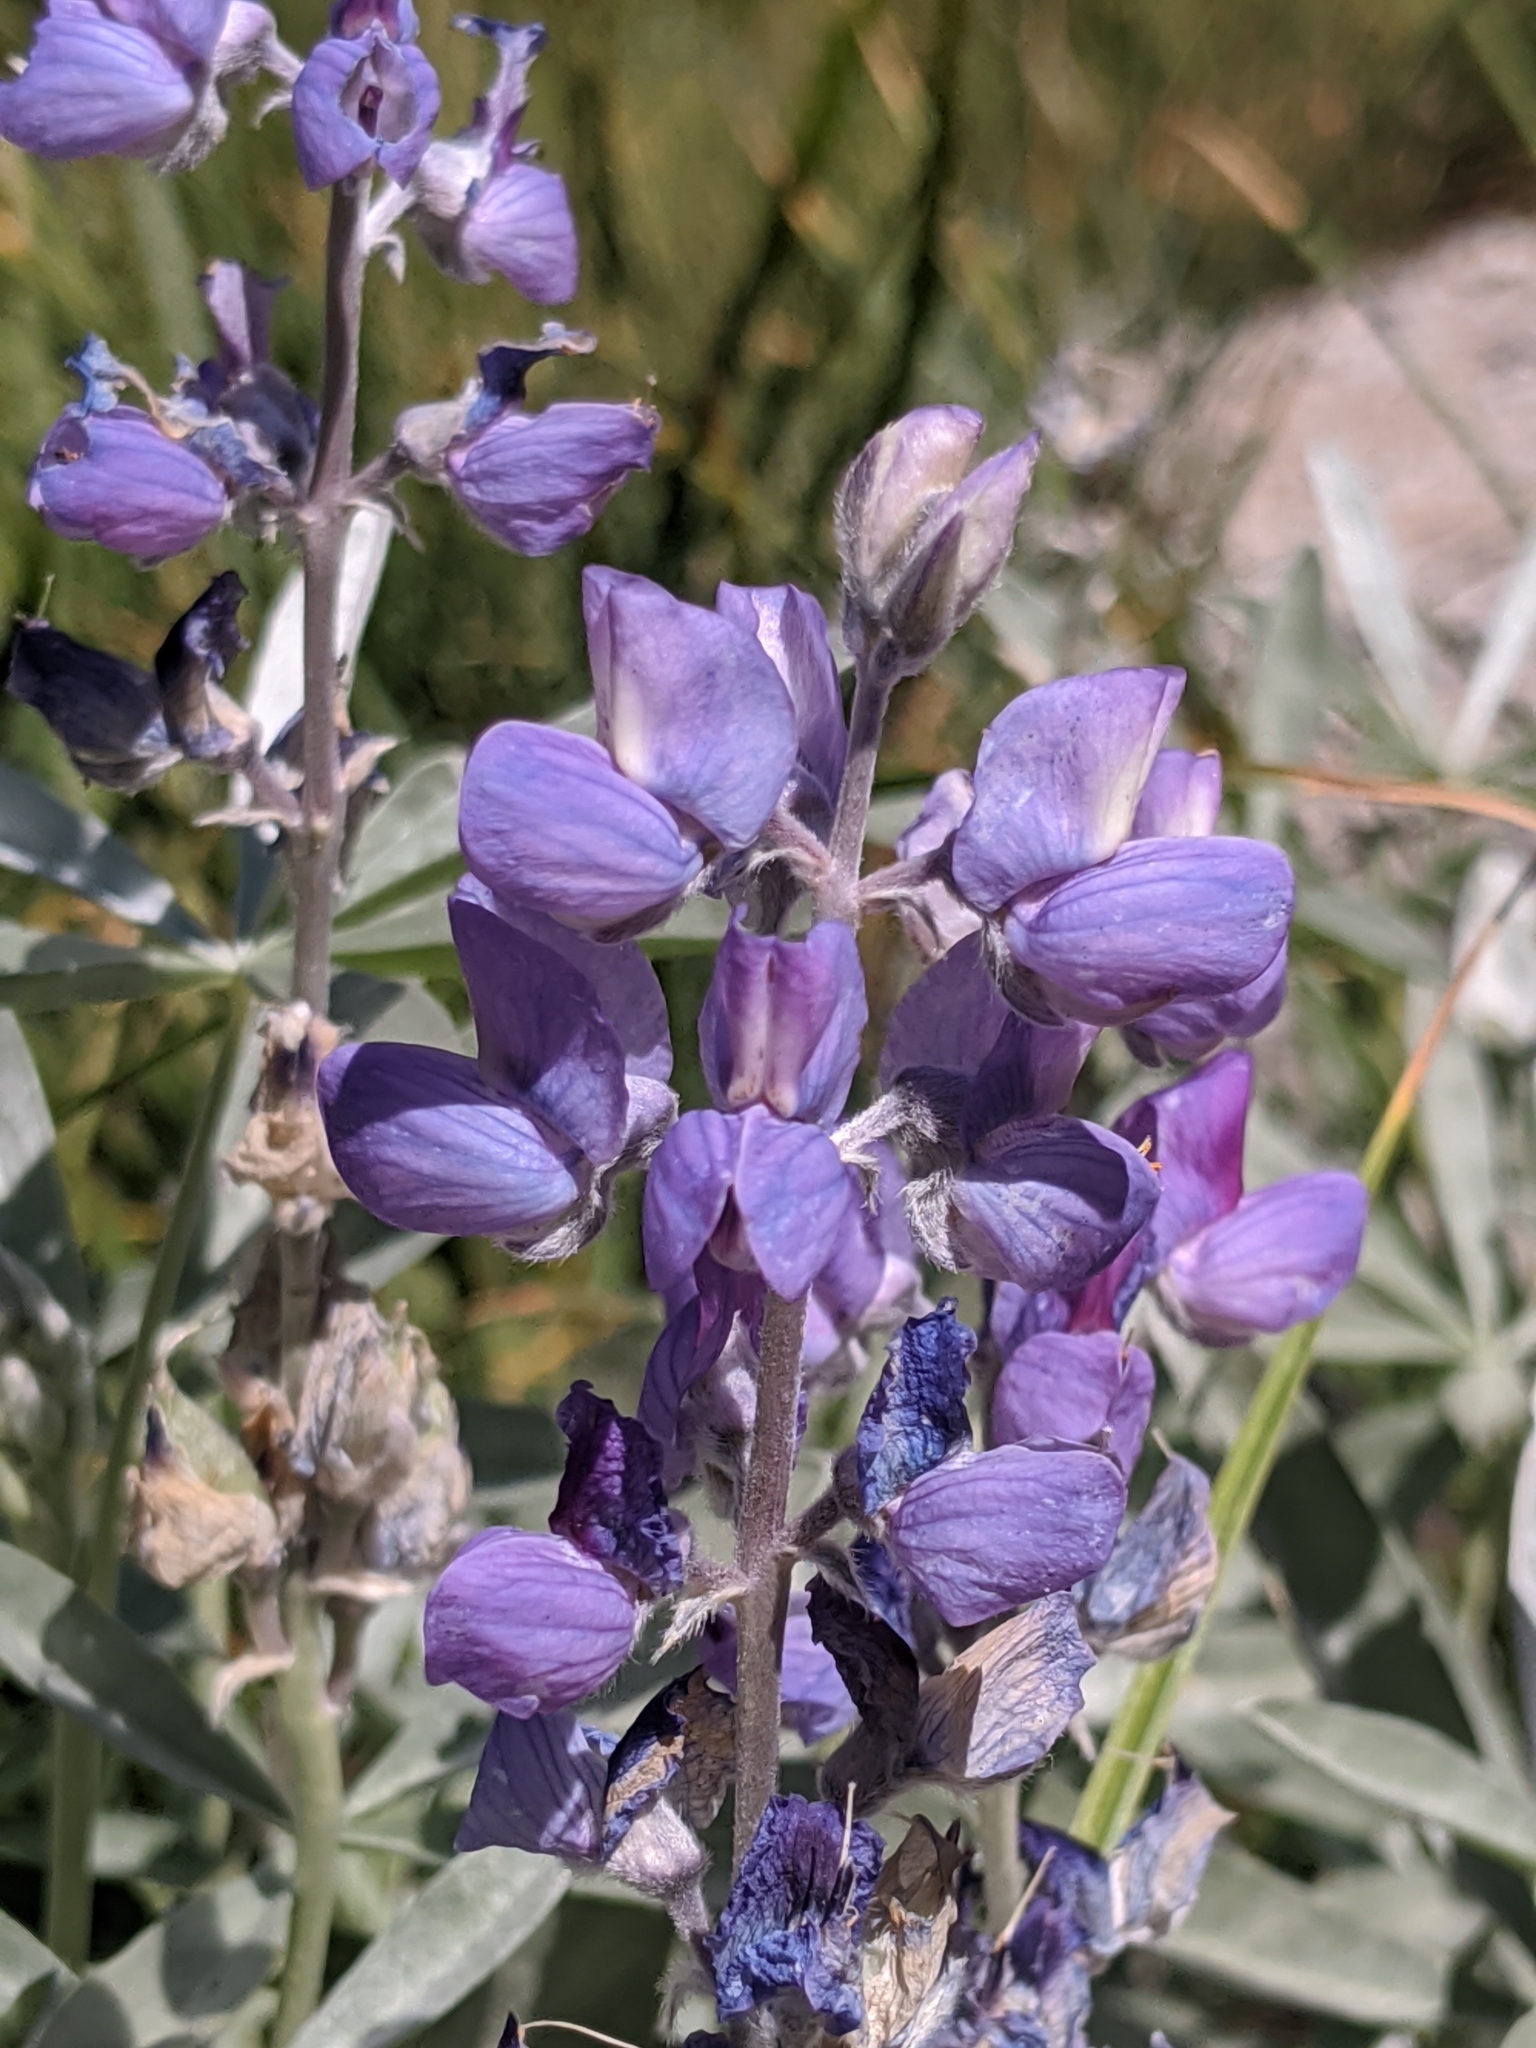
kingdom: Plantae
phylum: Tracheophyta
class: Magnoliopsida
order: Fabales
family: Fabaceae
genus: Lupinus
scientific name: Lupinus obtusilobus
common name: Blunt-lobe lupine
